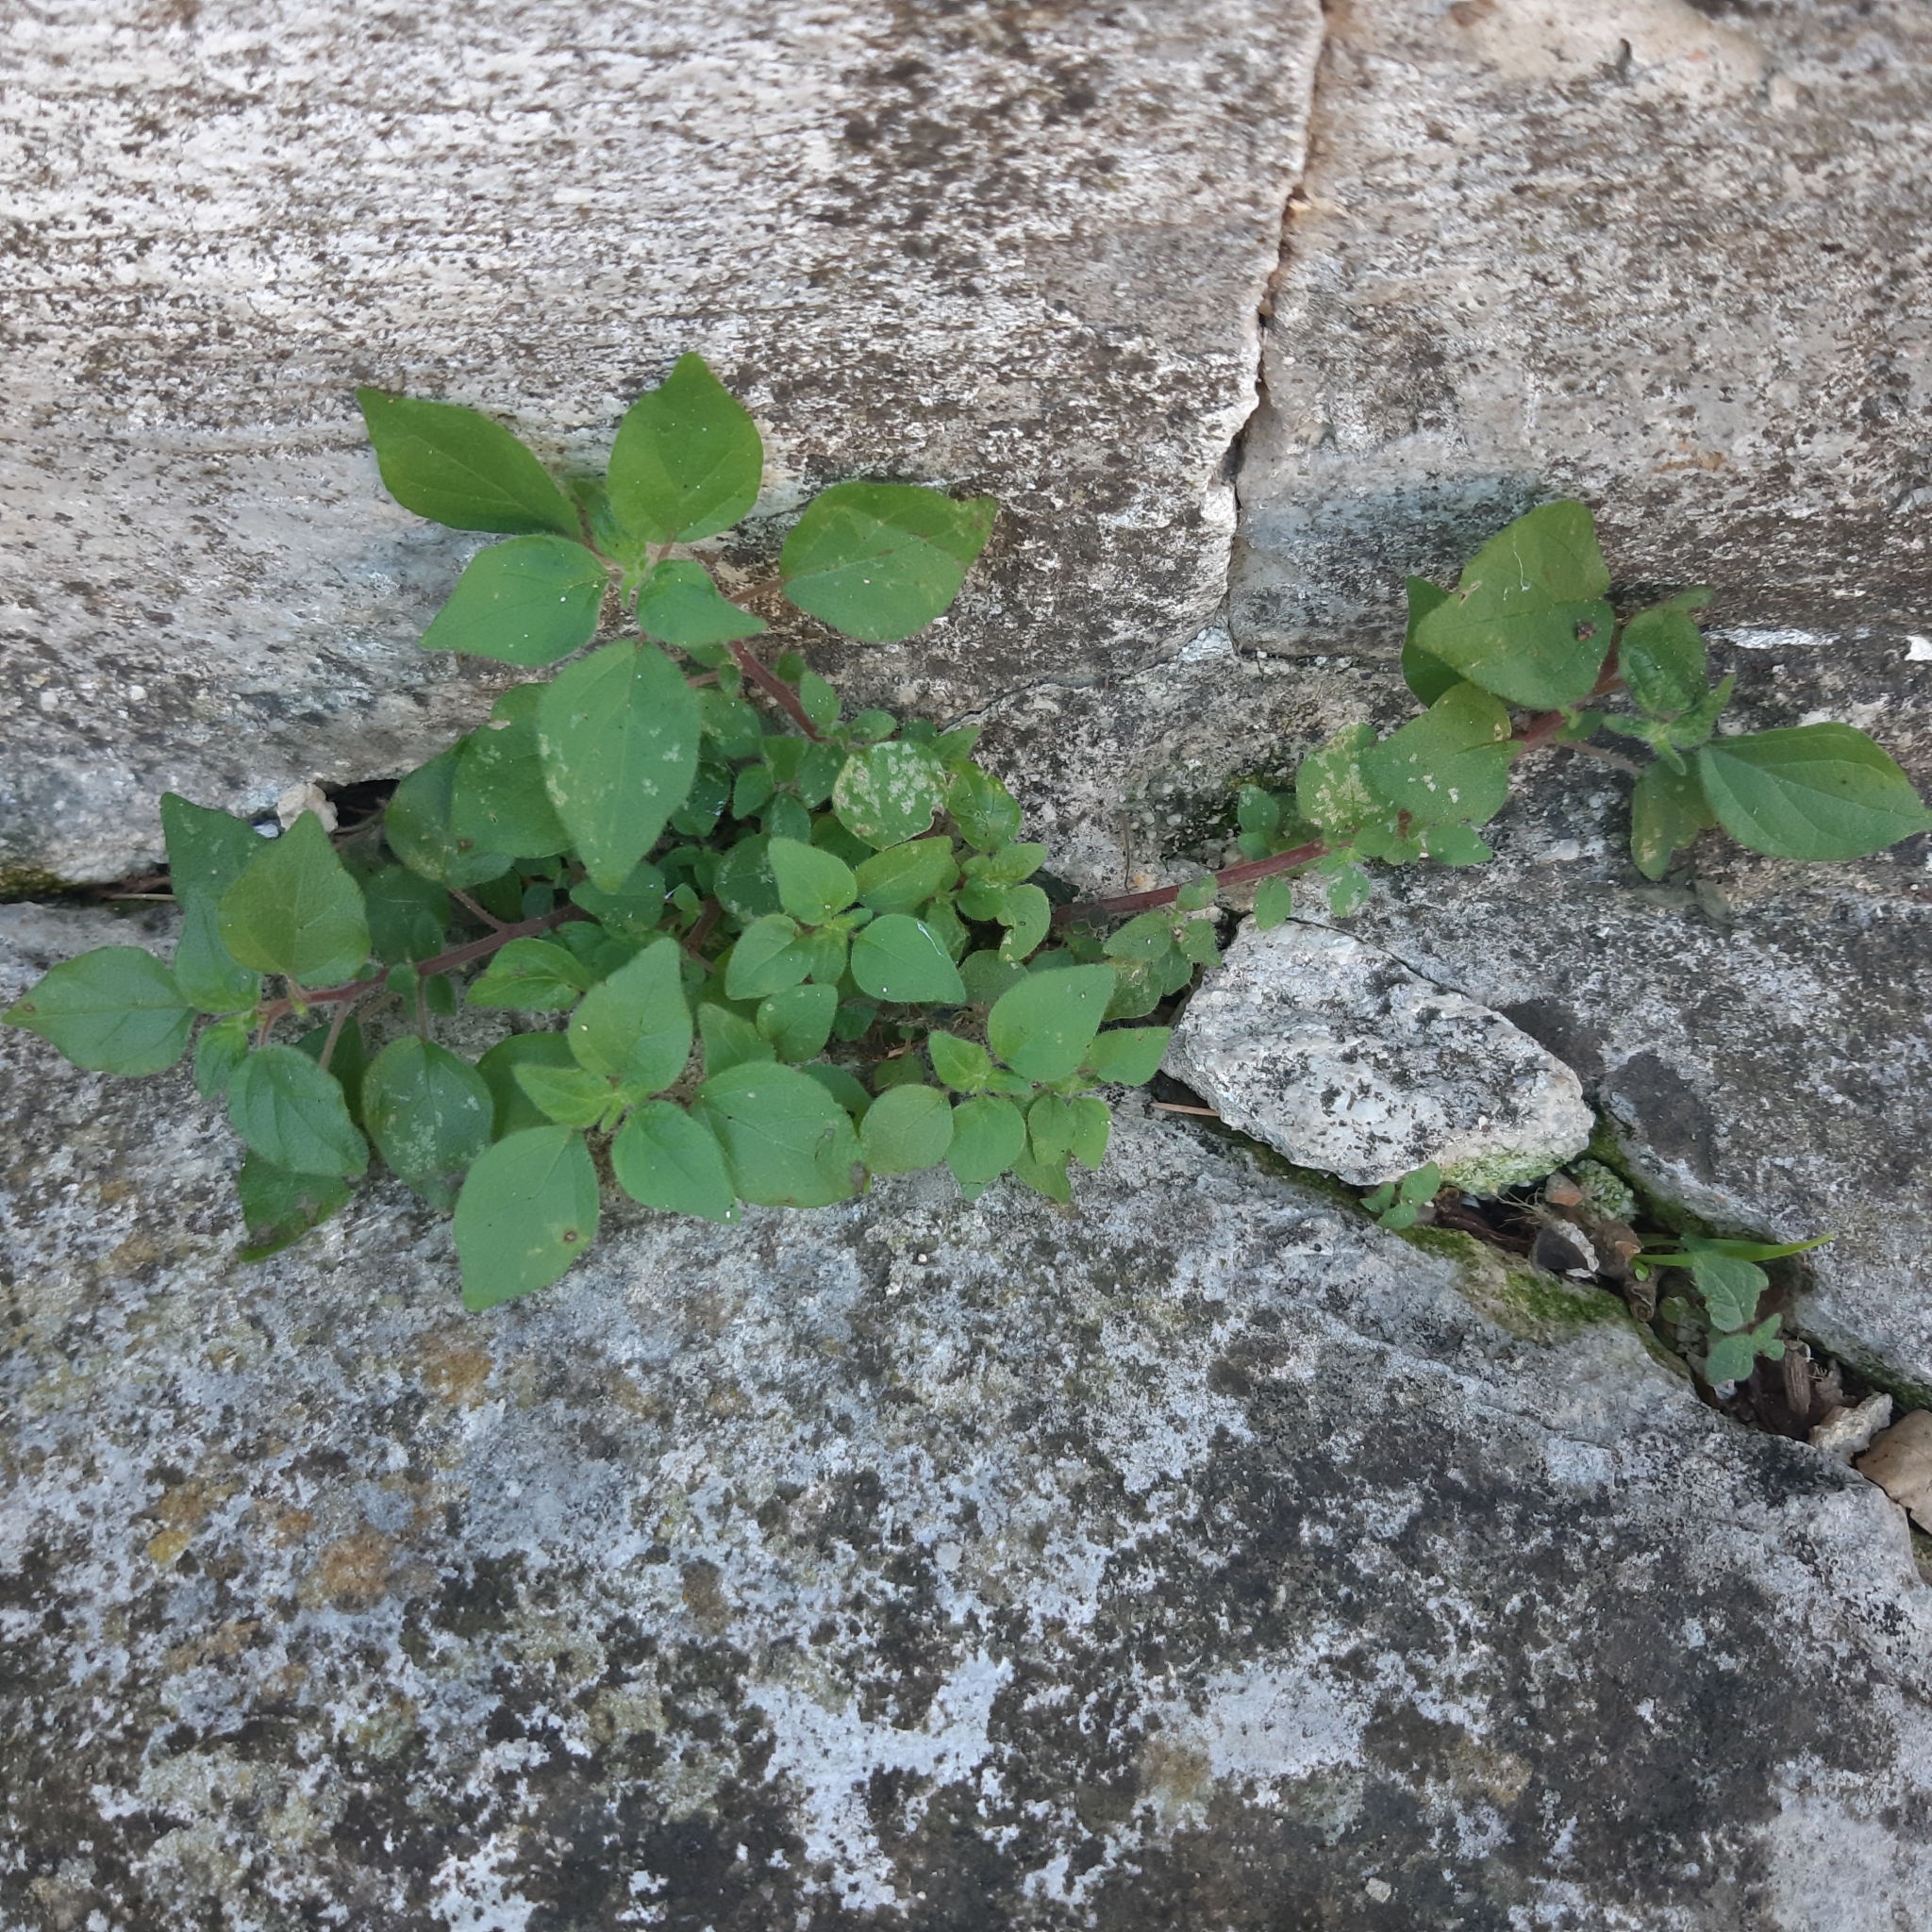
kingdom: Plantae
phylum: Tracheophyta
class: Magnoliopsida
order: Rosales
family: Urticaceae
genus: Parietaria
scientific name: Parietaria judaica
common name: Pellitory-of-the-wall
